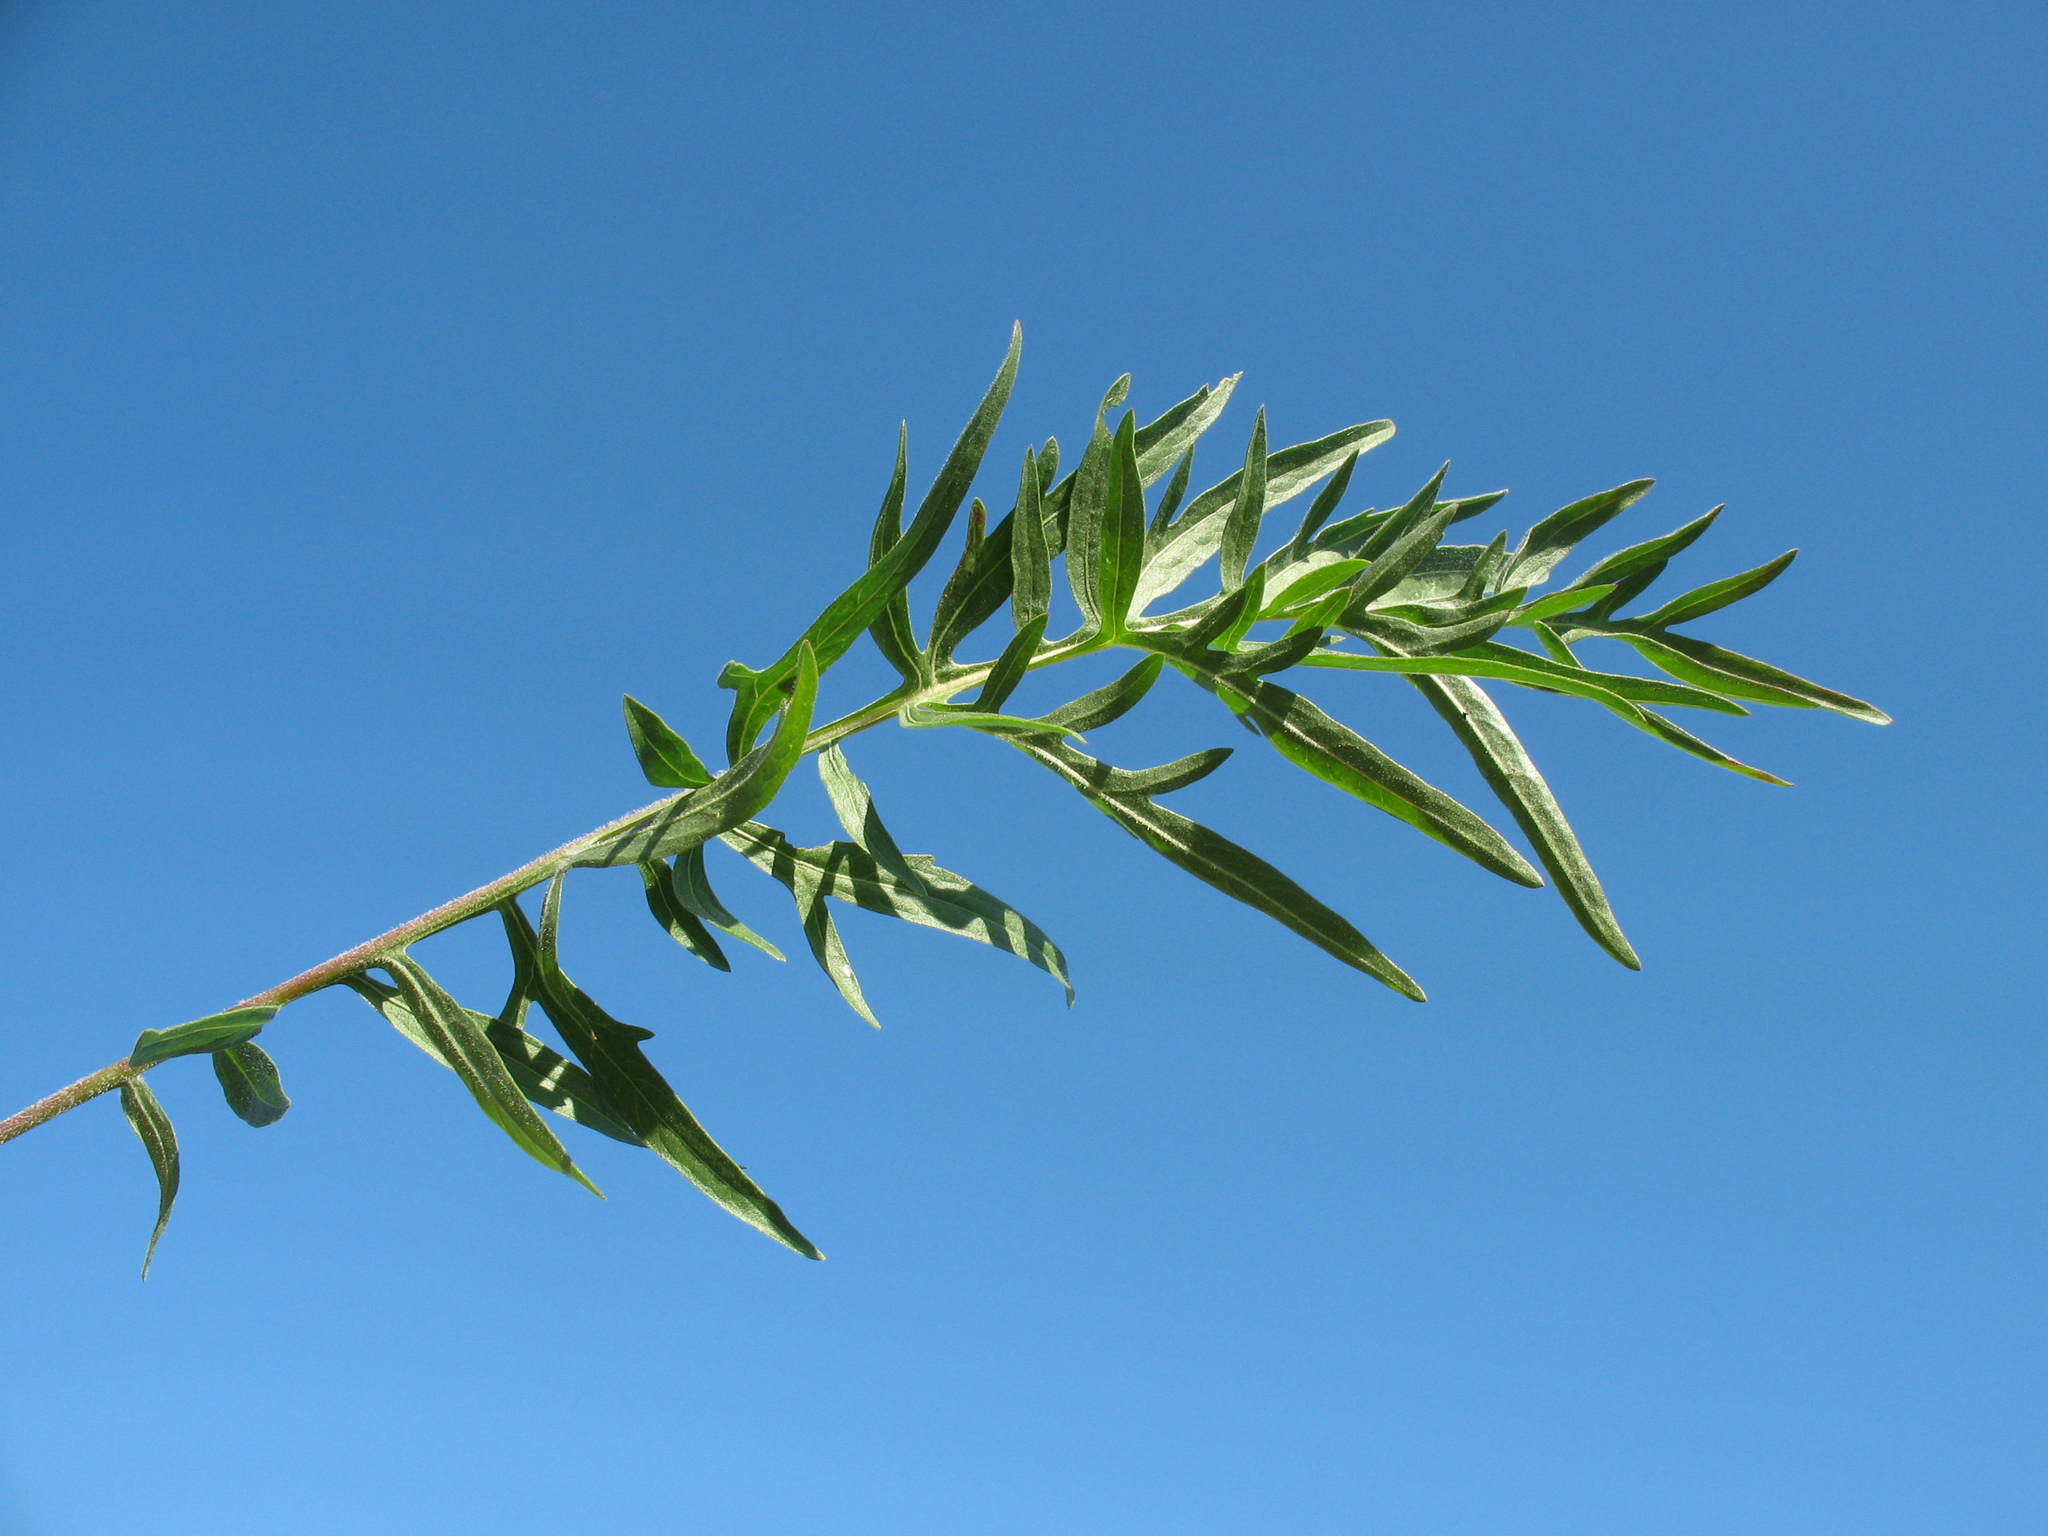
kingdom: Plantae
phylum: Tracheophyta
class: Magnoliopsida
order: Asterales
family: Asteraceae
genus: Centaurea
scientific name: Centaurea scabiosa
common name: Greater knapweed
